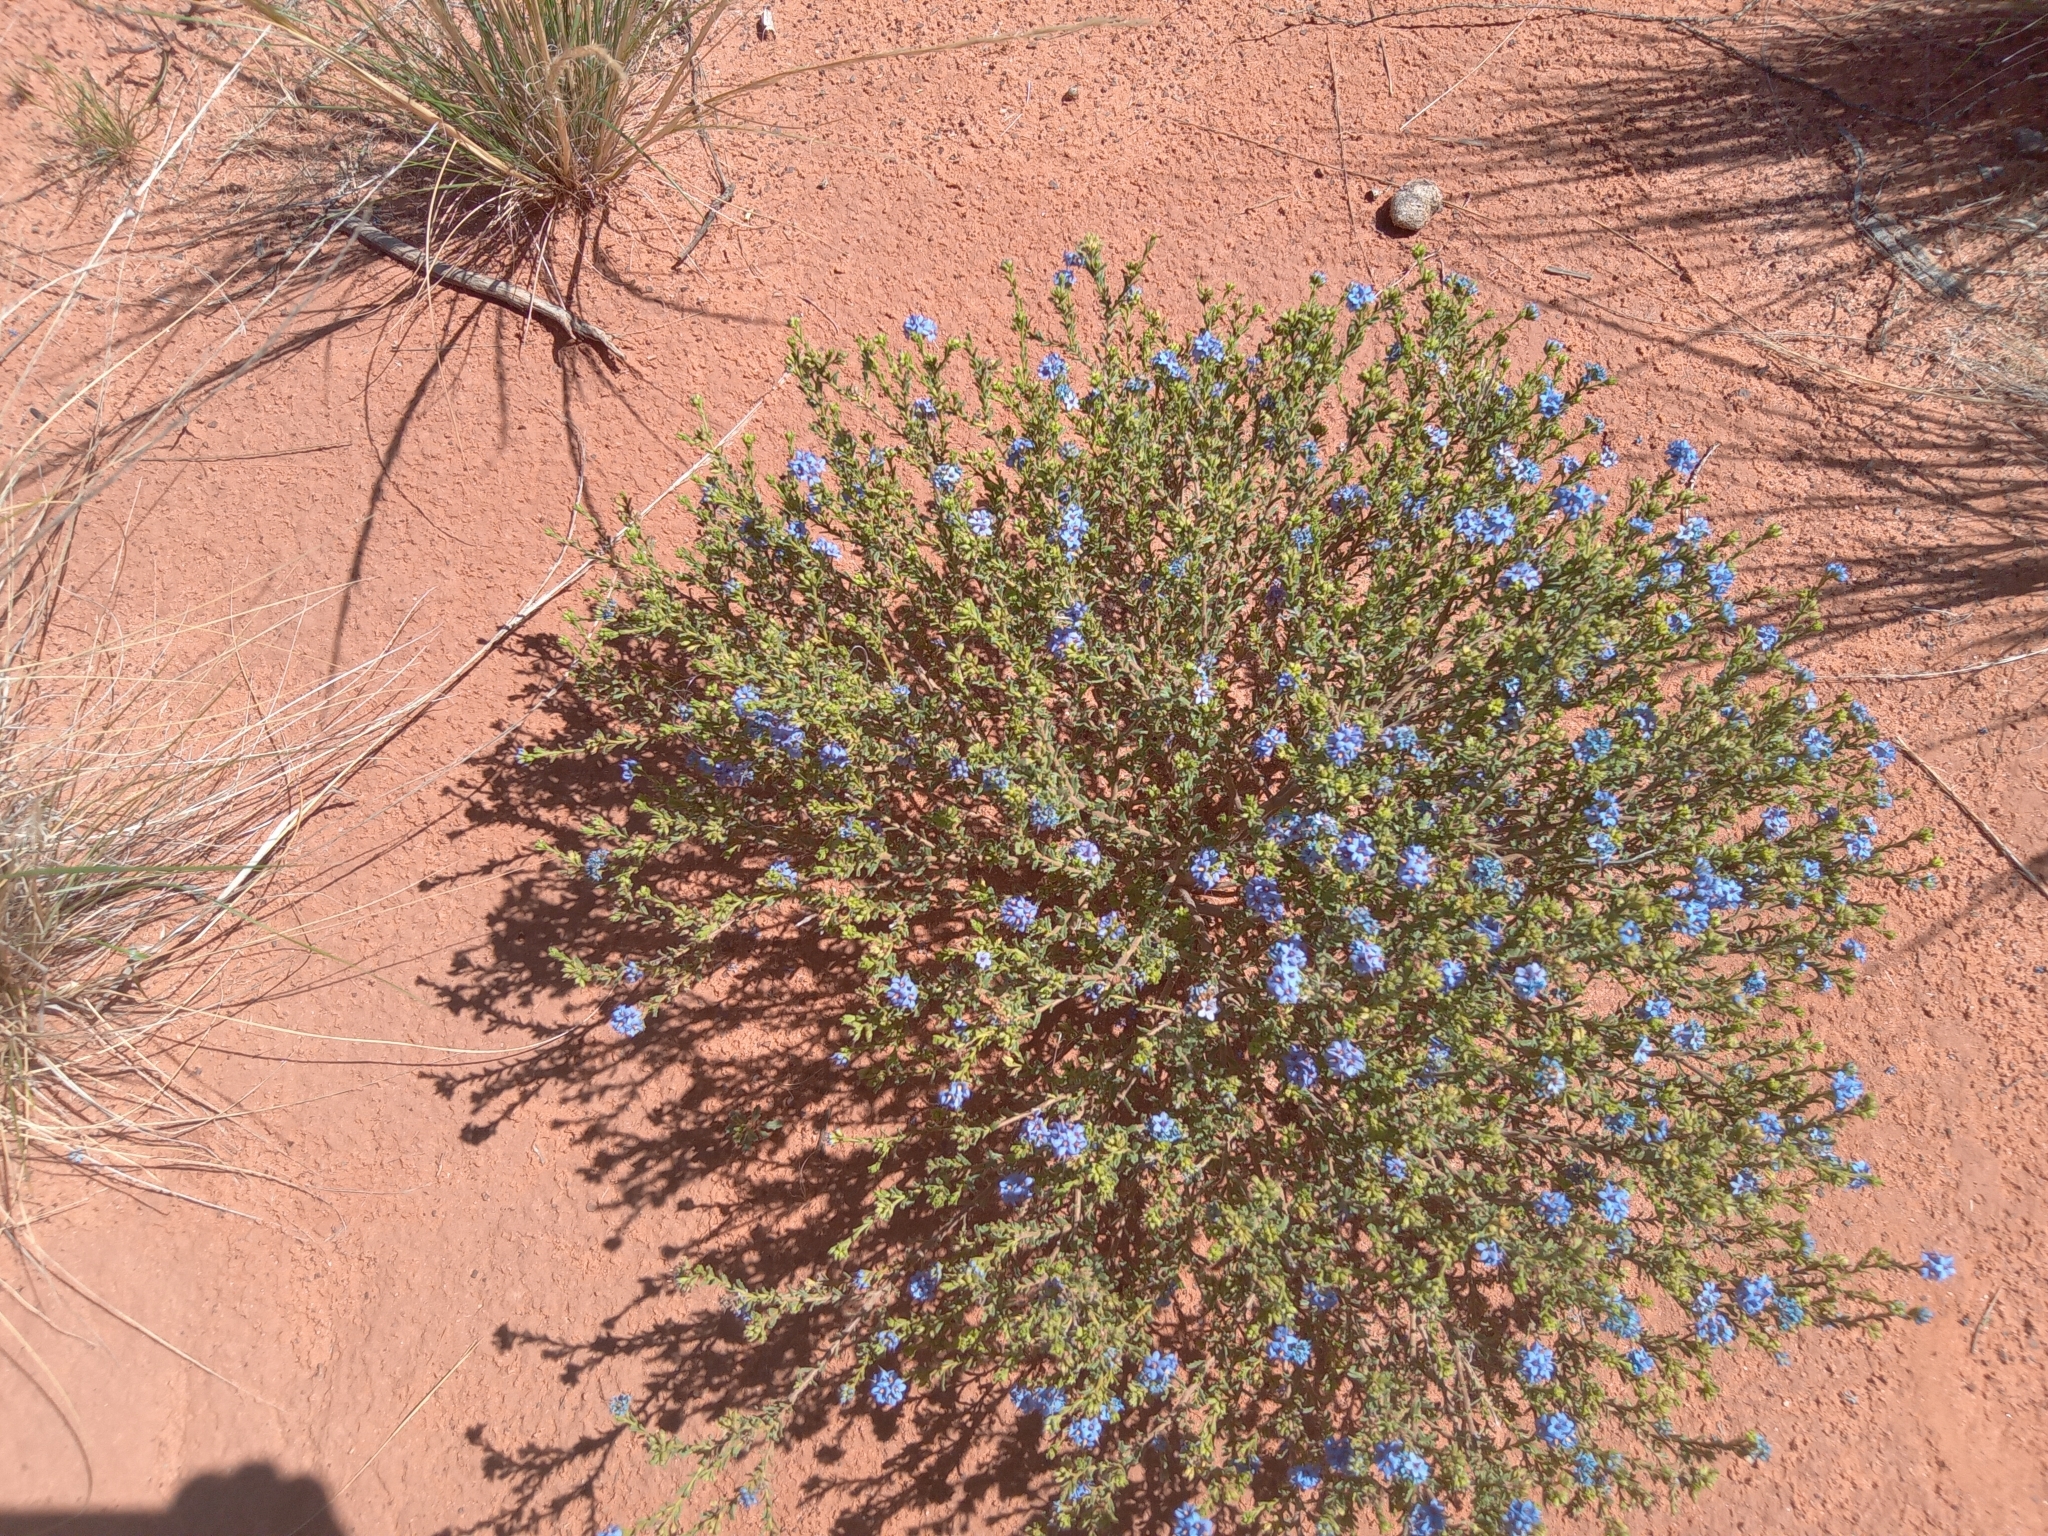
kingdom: Plantae
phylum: Tracheophyta
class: Magnoliopsida
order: Boraginales
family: Ehretiaceae
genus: Halgania
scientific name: Halgania cyanea
